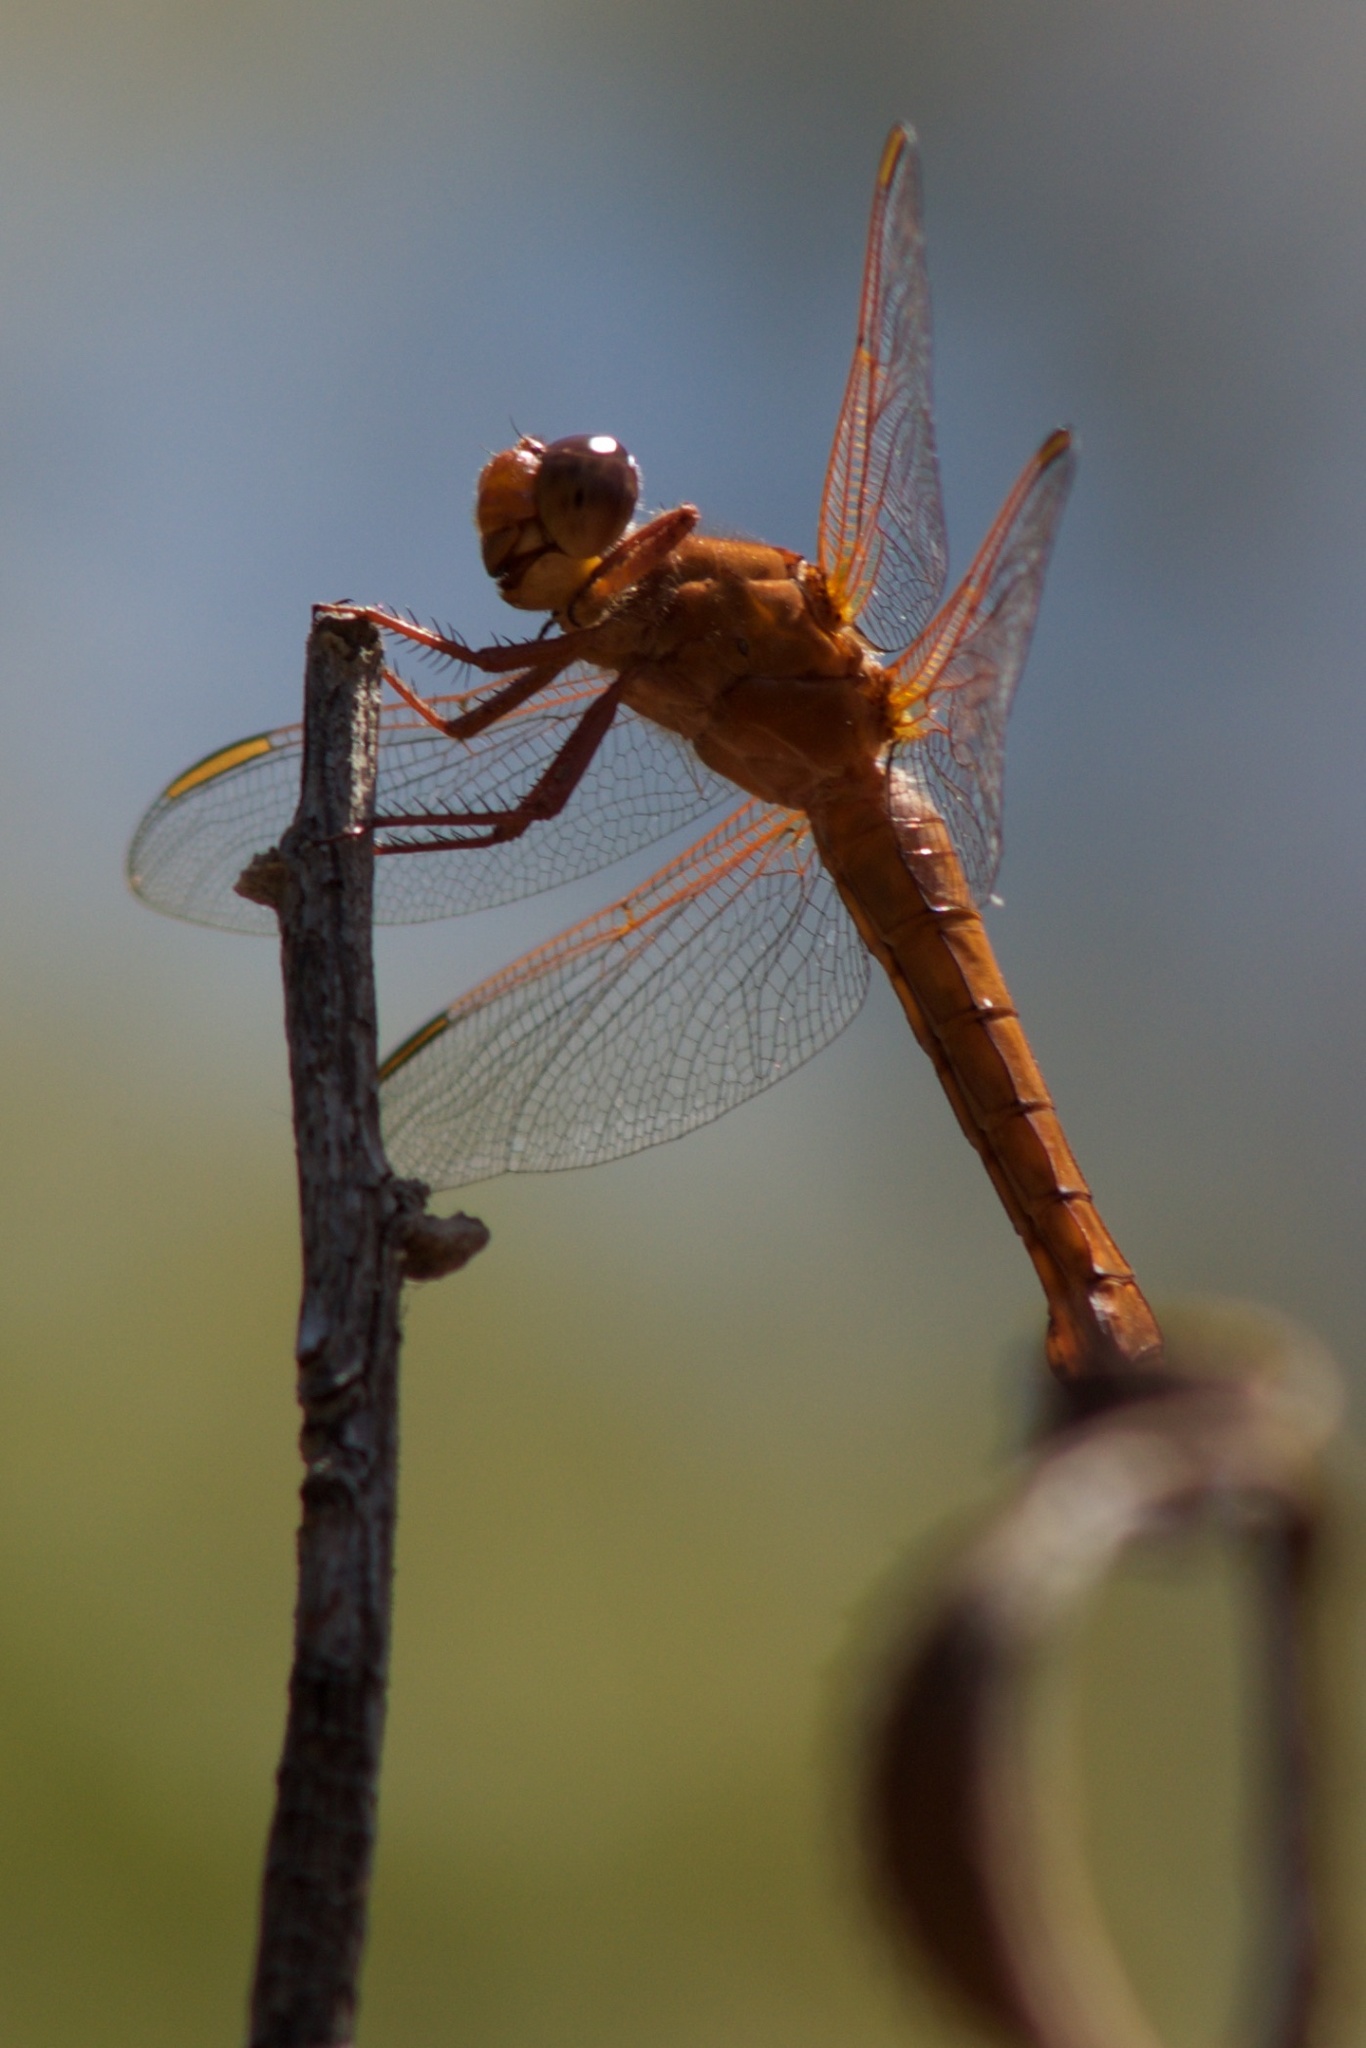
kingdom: Animalia
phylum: Arthropoda
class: Insecta
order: Odonata
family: Libellulidae
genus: Libellula
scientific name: Libellula croceipennis
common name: Neon skimmer
